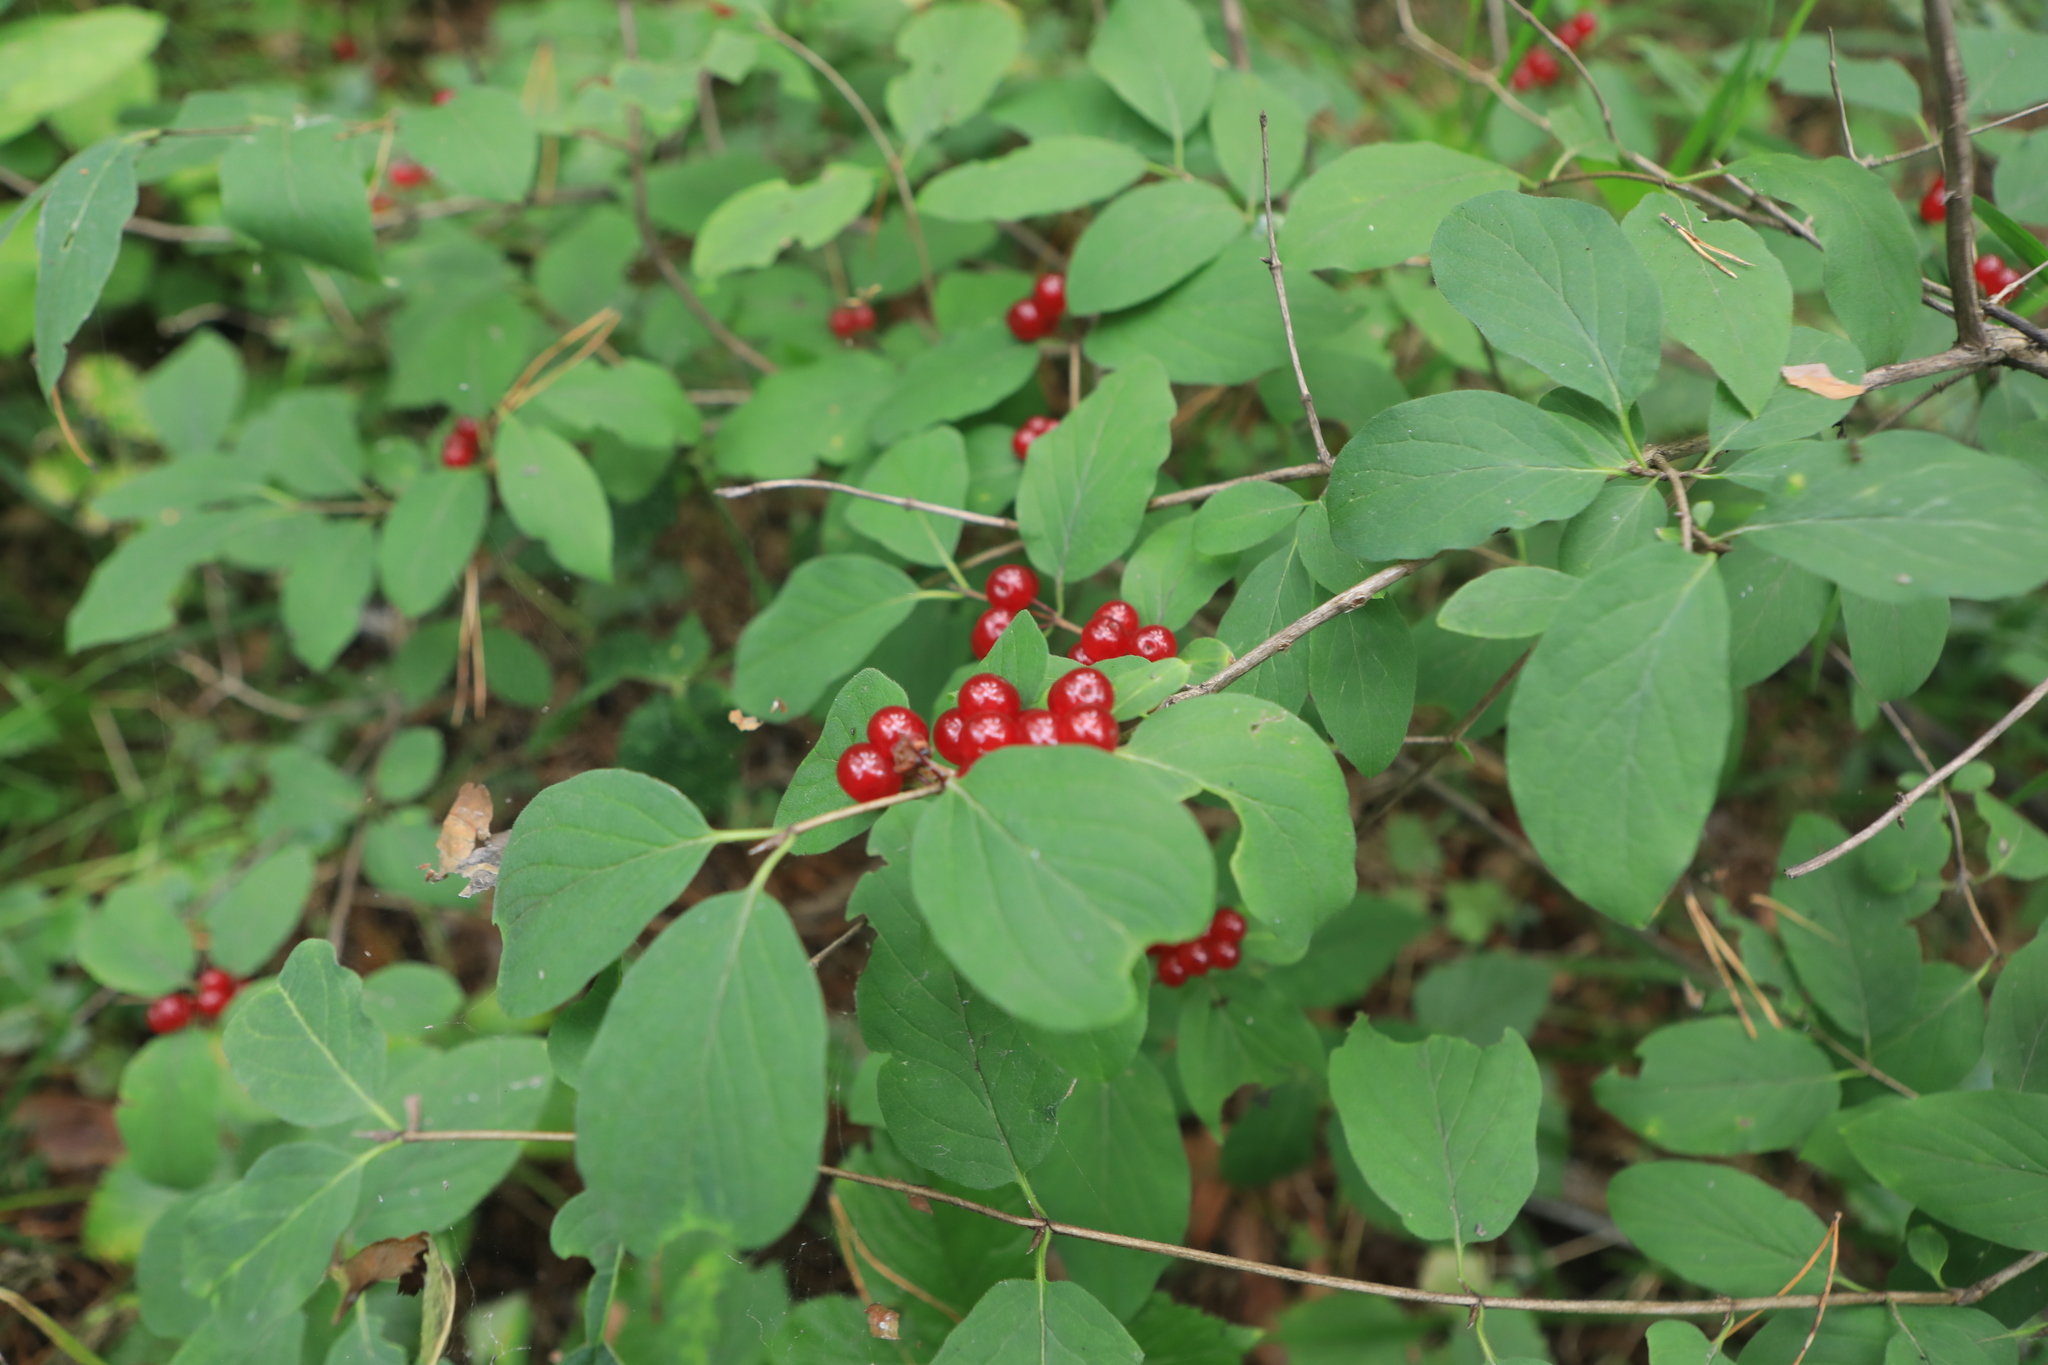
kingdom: Plantae
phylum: Tracheophyta
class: Magnoliopsida
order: Dipsacales
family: Caprifoliaceae
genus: Lonicera
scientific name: Lonicera xylosteum
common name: Fly honeysuckle
